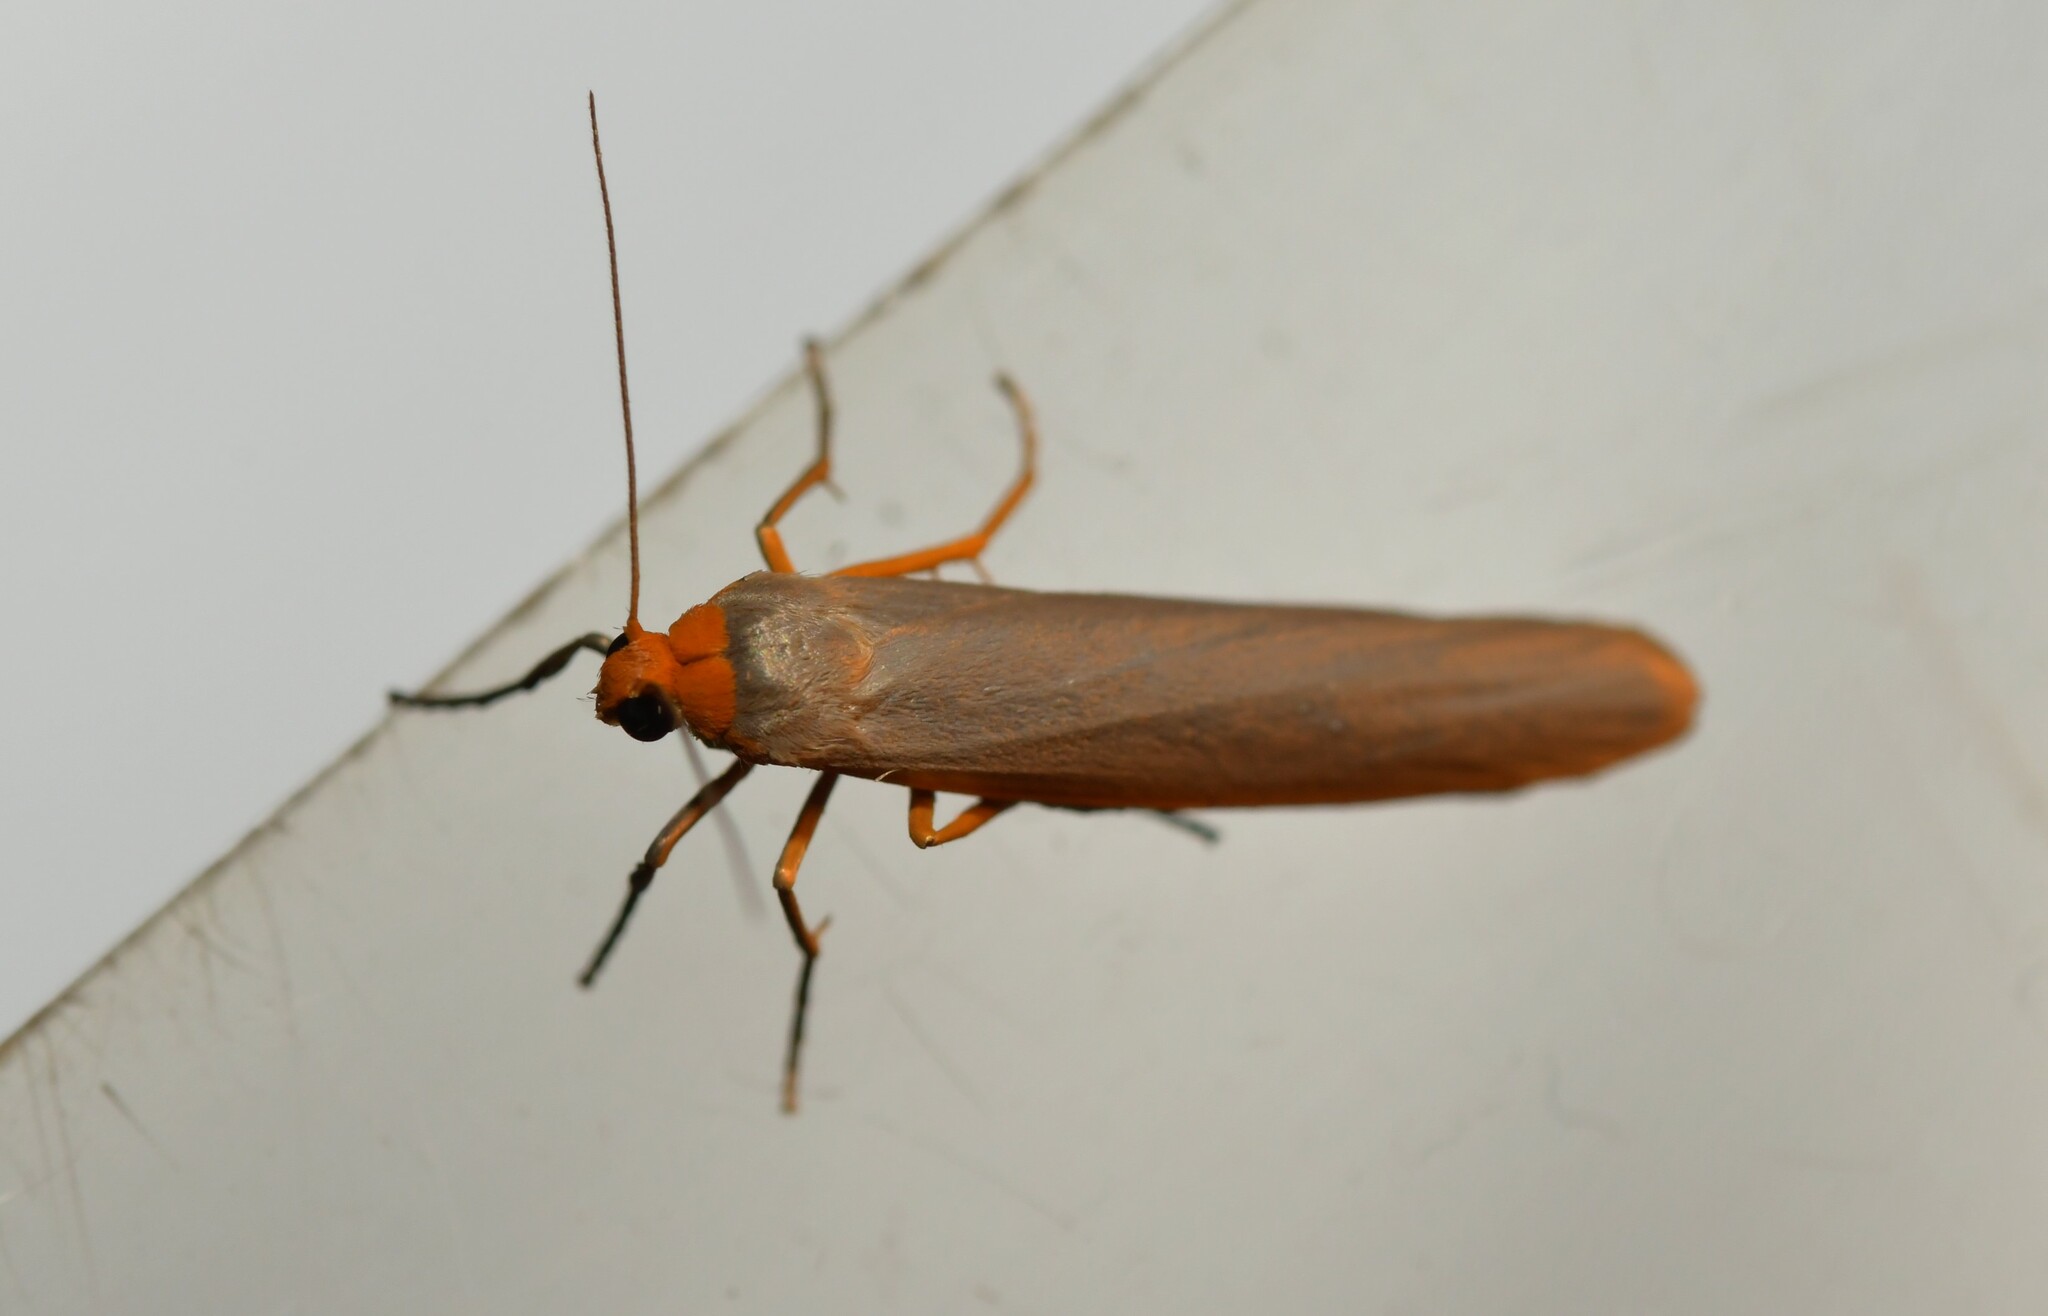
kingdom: Animalia
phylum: Arthropoda
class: Insecta
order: Lepidoptera
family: Erebidae
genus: Eilema
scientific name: Eilema caniola
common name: Hoary footman
